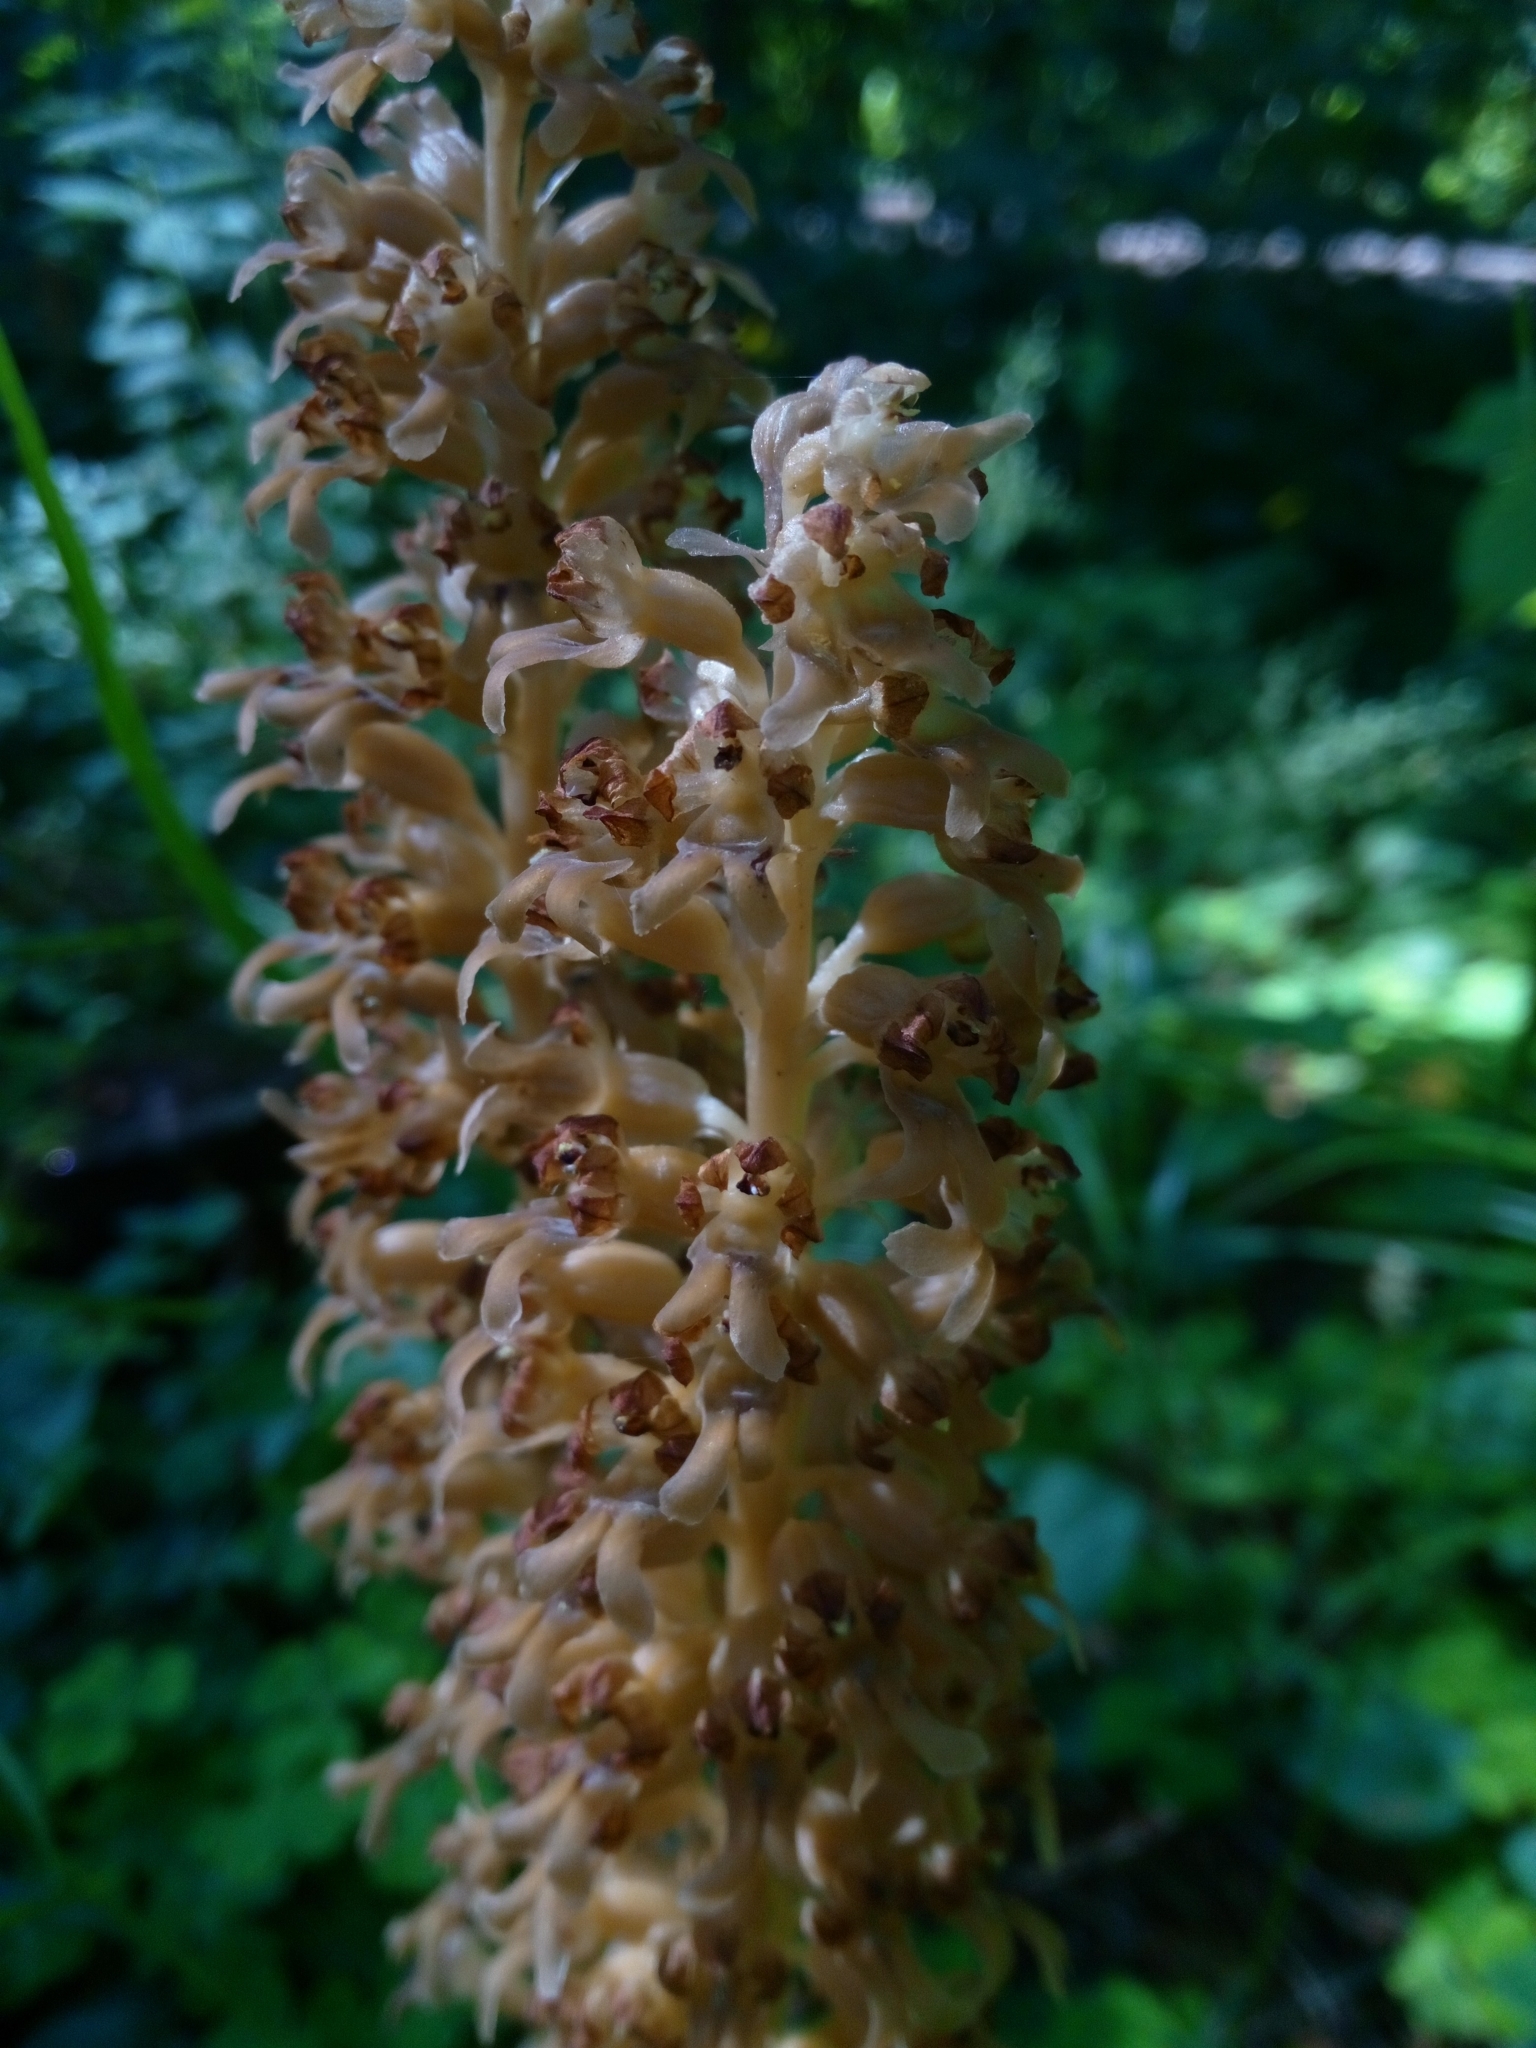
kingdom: Plantae
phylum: Tracheophyta
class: Liliopsida
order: Asparagales
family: Orchidaceae
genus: Neottia
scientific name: Neottia nidus-avis
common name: Bird's-nest orchid
